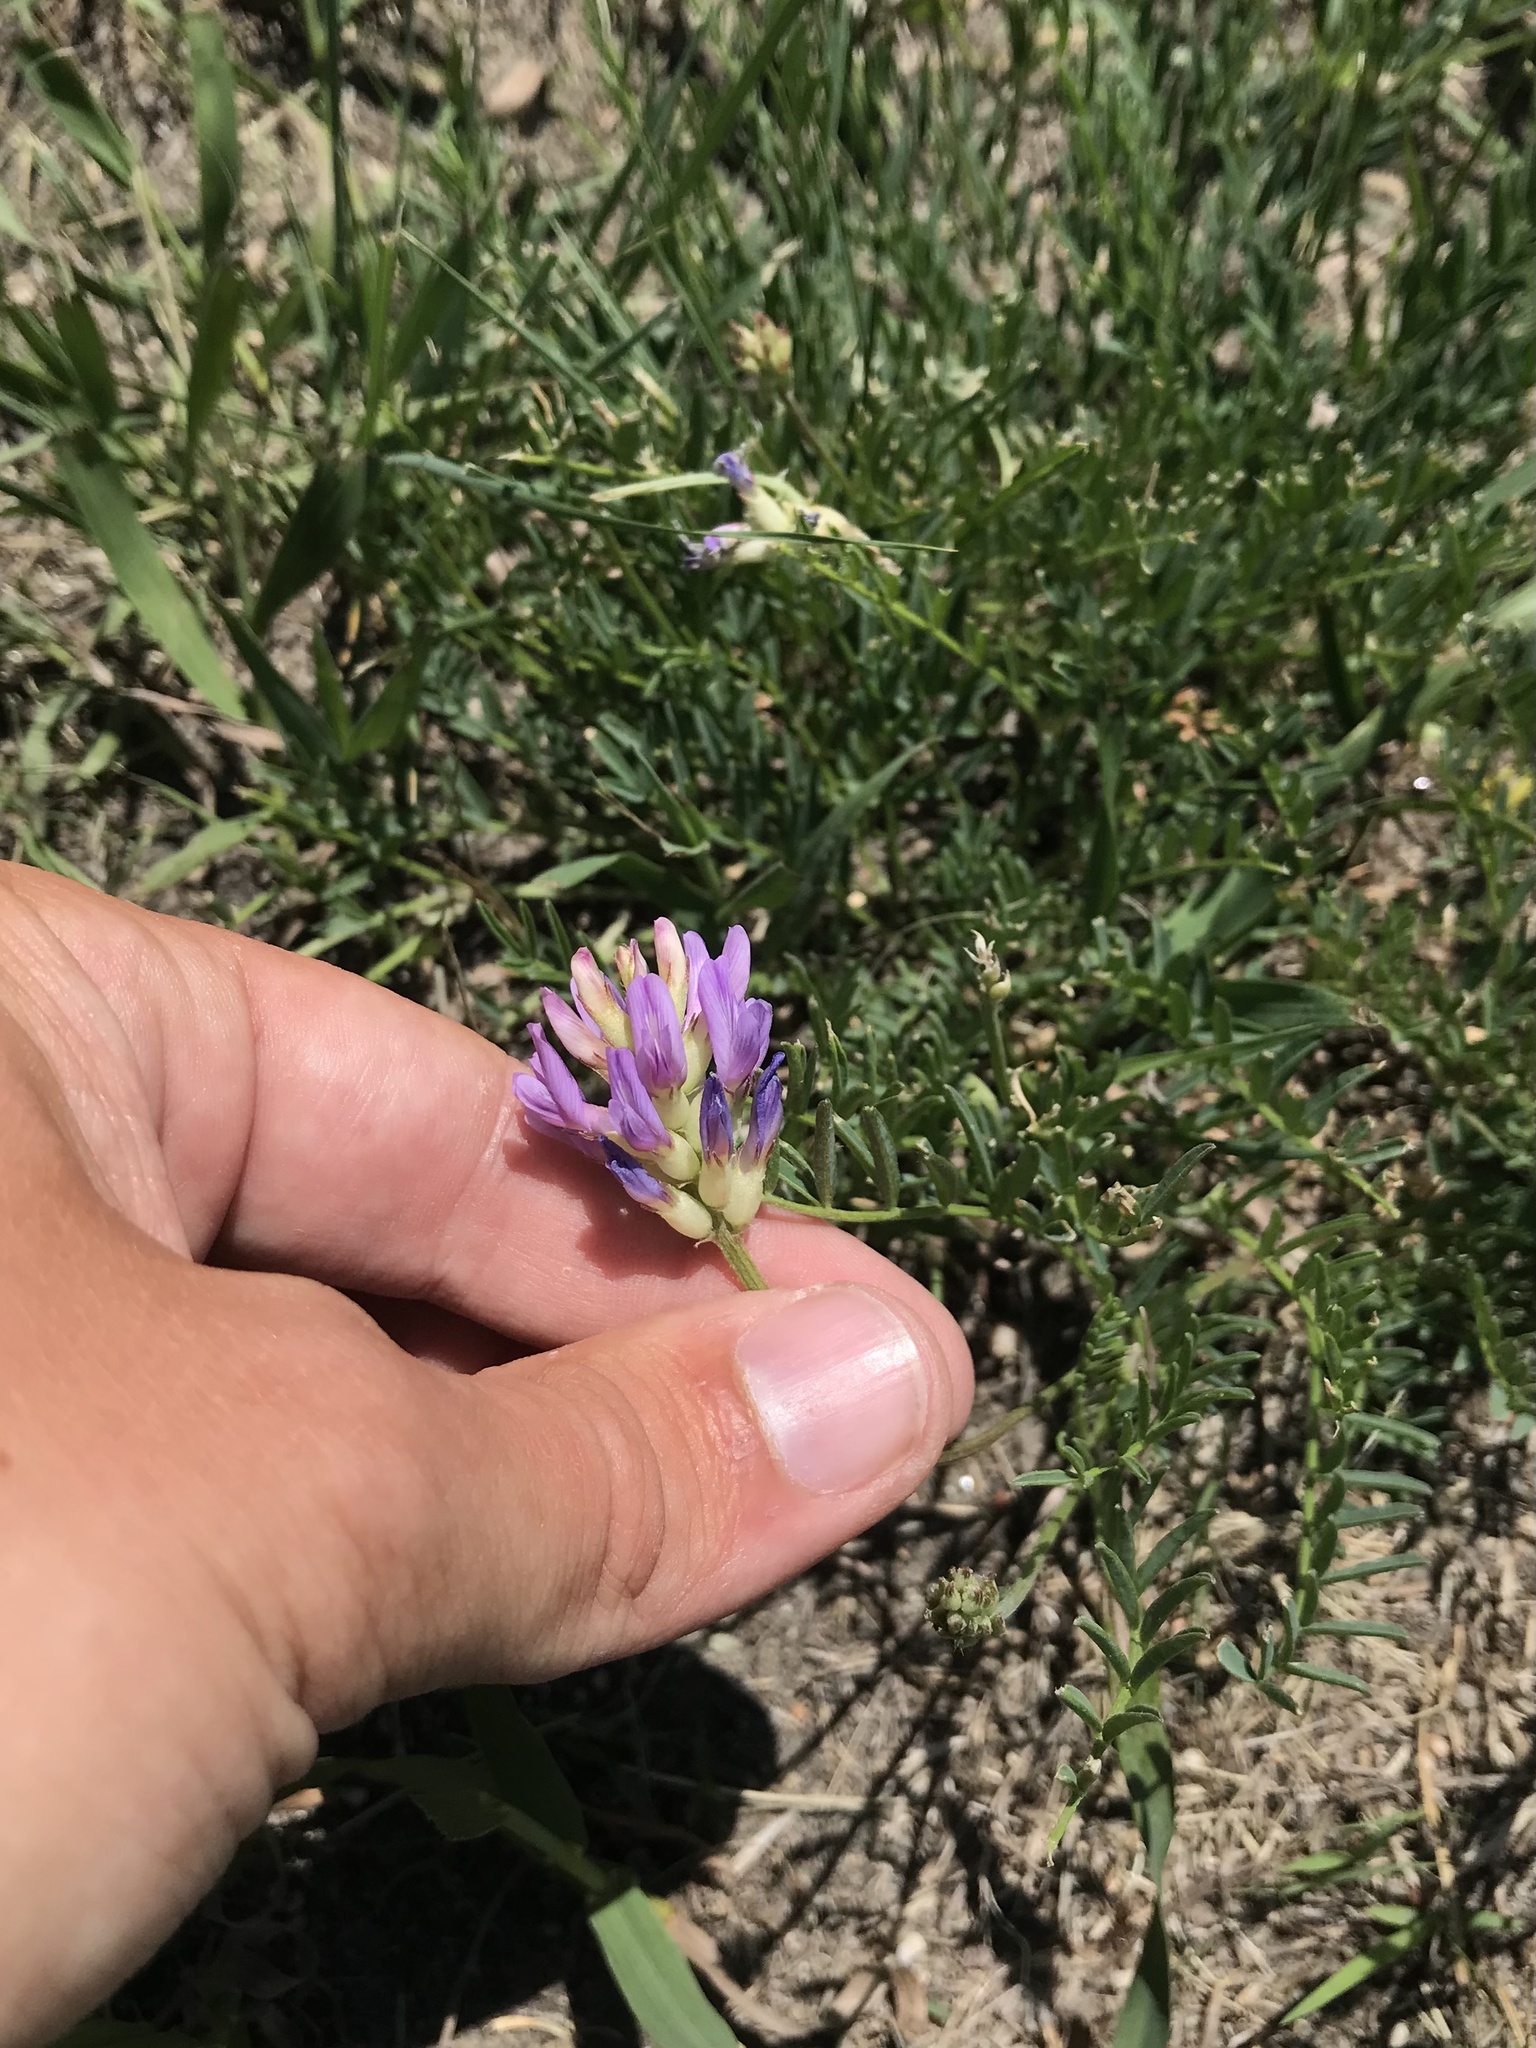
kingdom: Plantae
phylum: Tracheophyta
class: Magnoliopsida
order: Fabales
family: Fabaceae
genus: Astragalus
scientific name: Astragalus laxmannii
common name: Laxmann's milk-vetch
